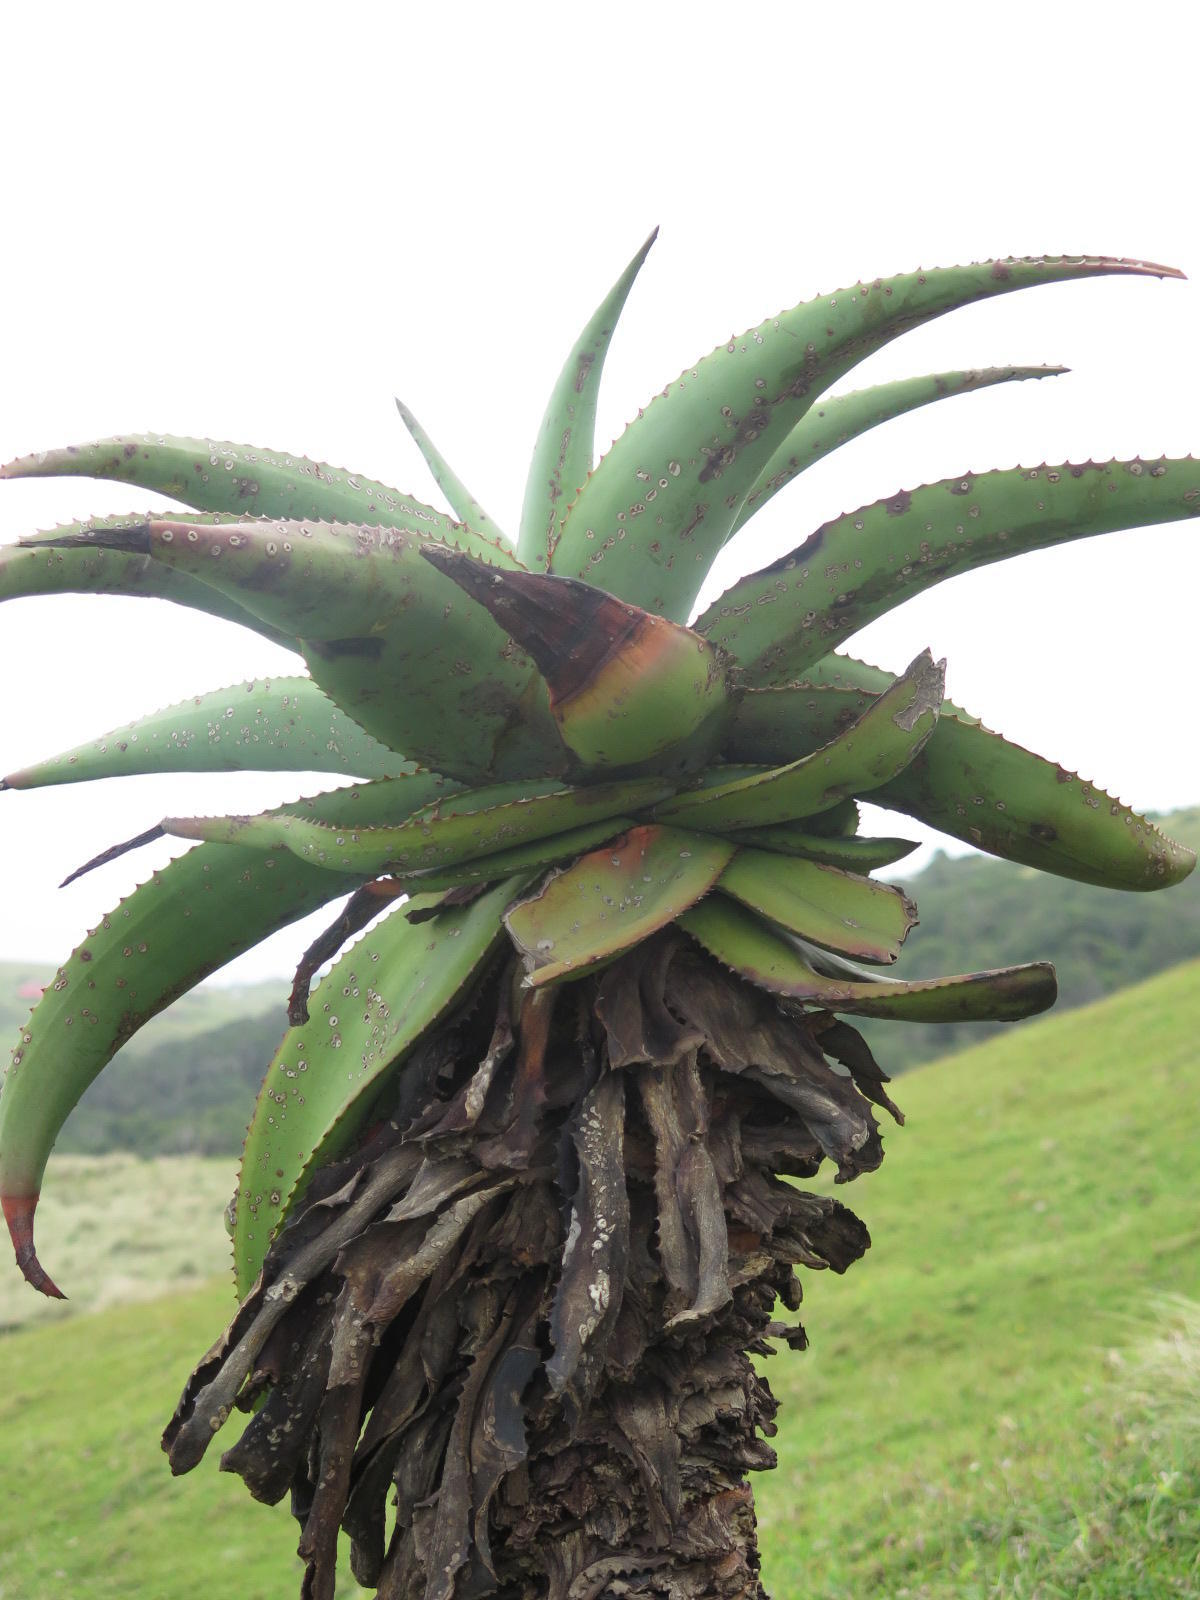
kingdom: Plantae
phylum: Tracheophyta
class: Liliopsida
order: Asparagales
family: Asphodelaceae
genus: Aloe
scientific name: Aloe ferox
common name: Bitter aloe
